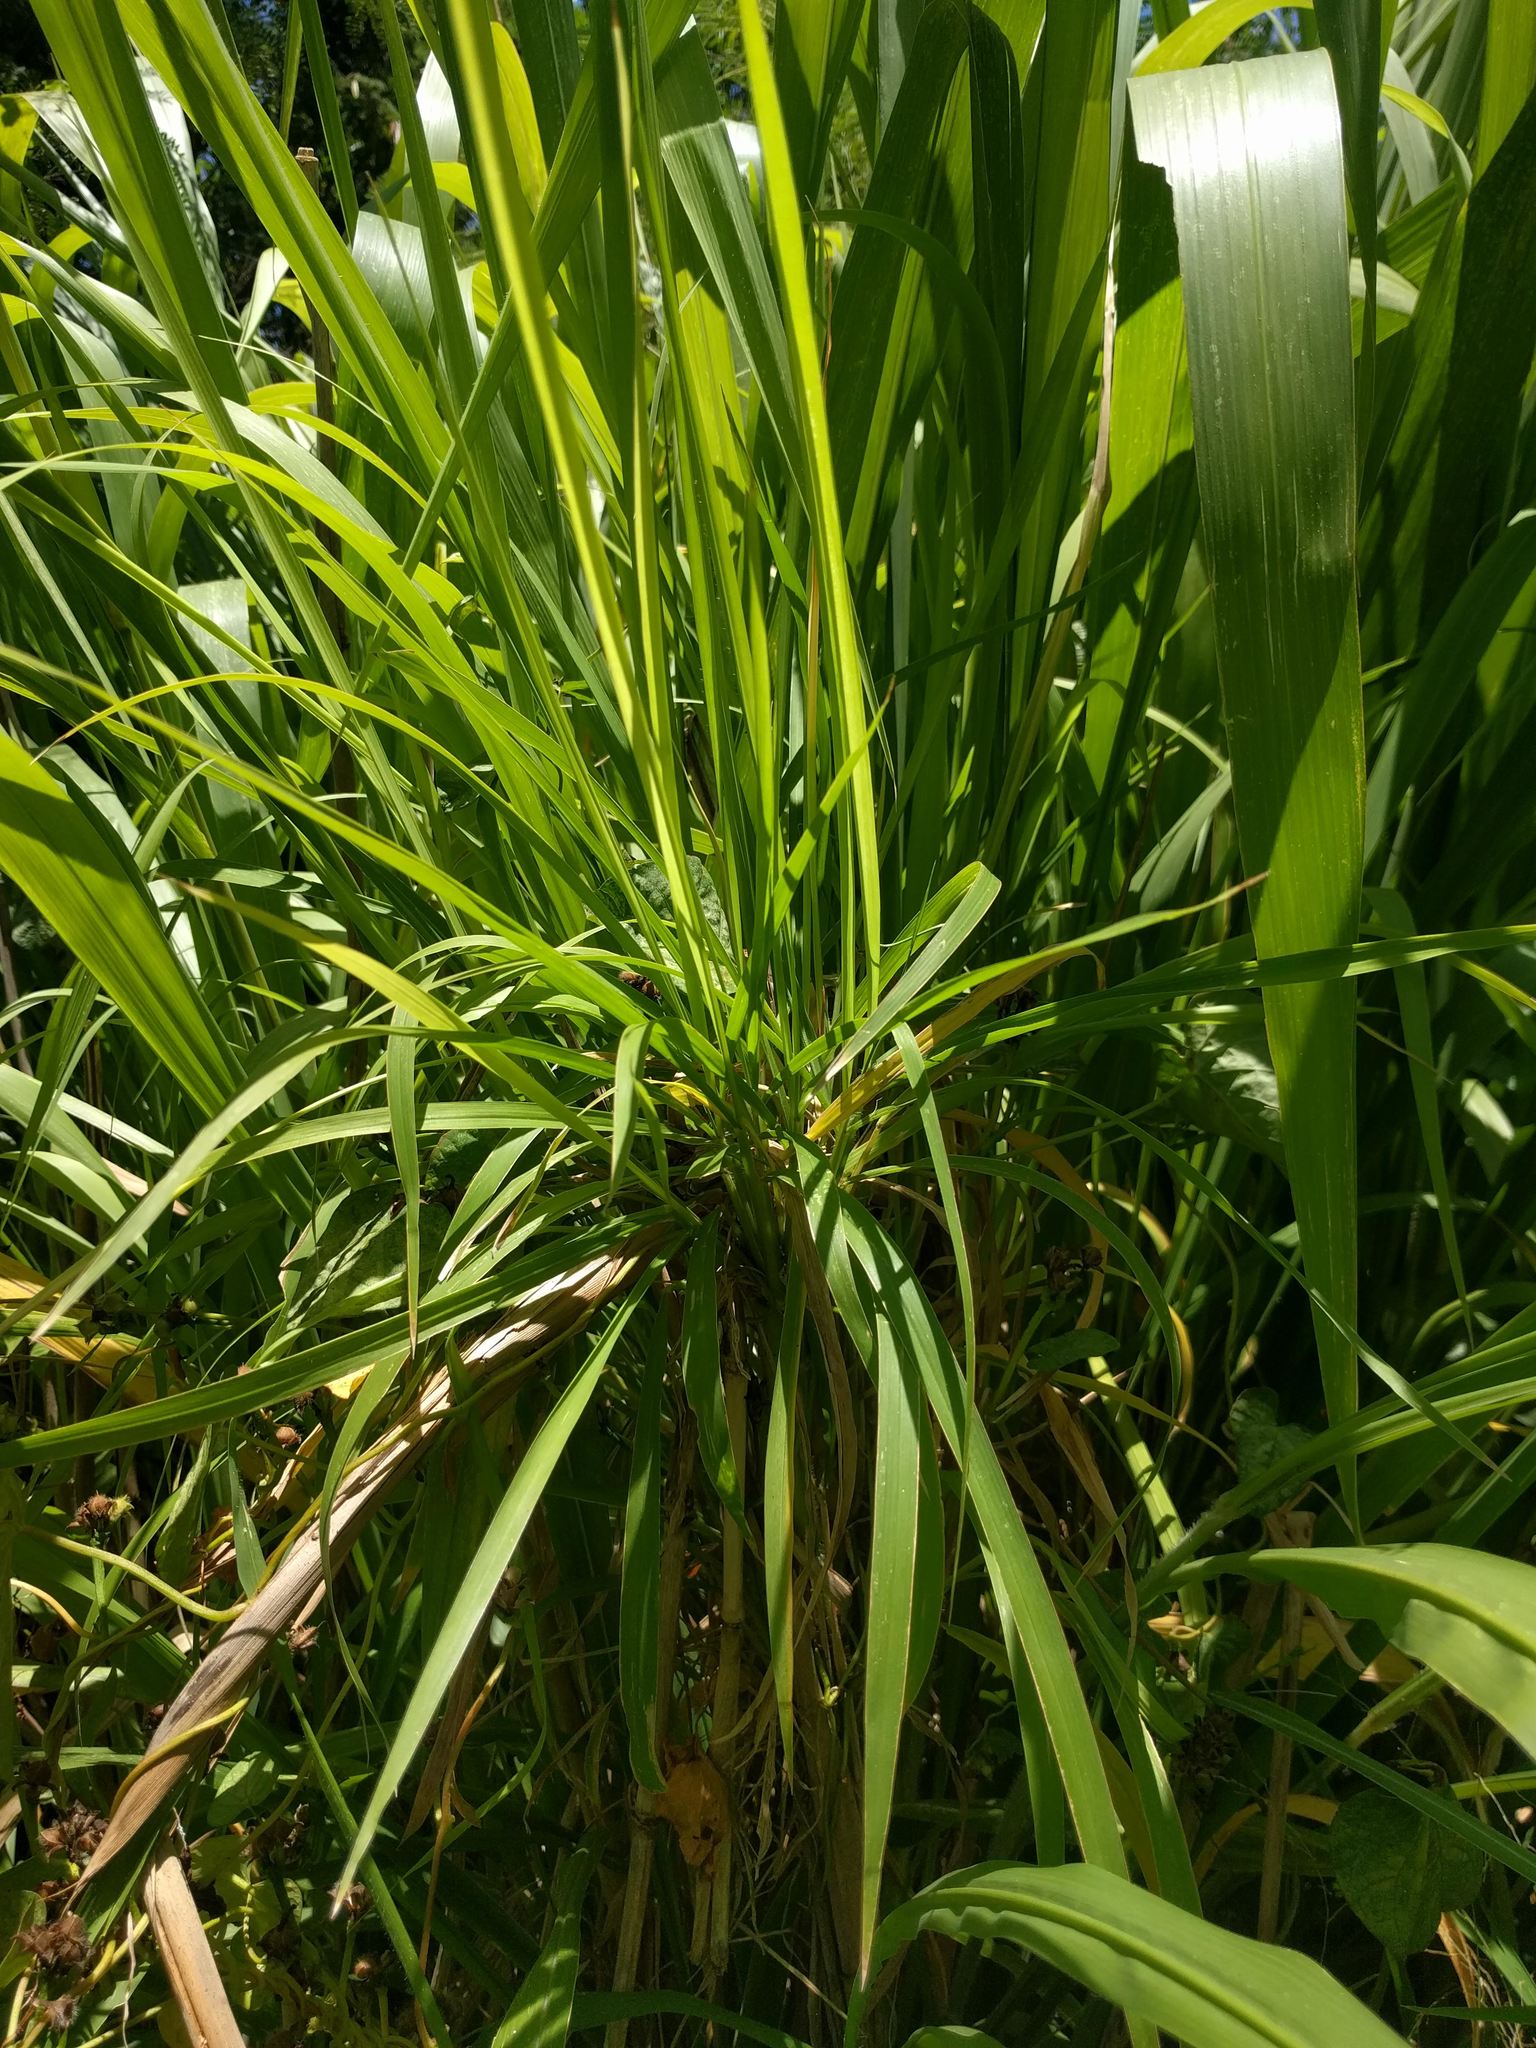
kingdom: Plantae
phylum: Tracheophyta
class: Liliopsida
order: Poales
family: Poaceae
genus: Megathyrsus
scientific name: Megathyrsus maximus
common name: Guineagrass
